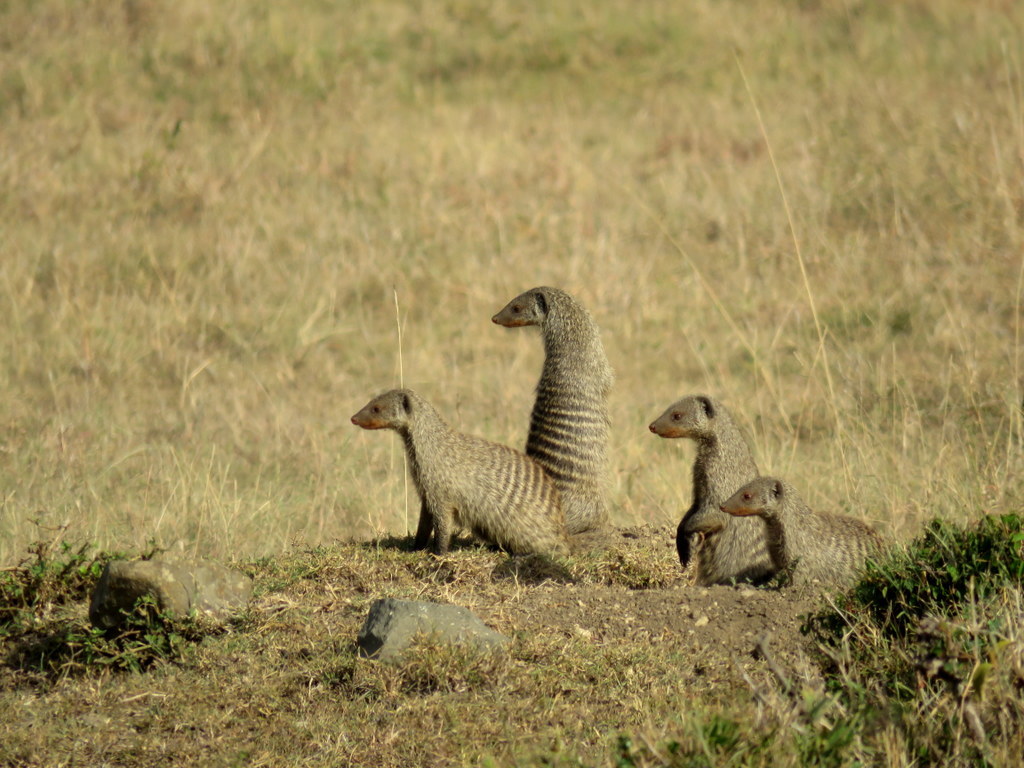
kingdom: Animalia
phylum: Chordata
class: Mammalia
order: Carnivora
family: Herpestidae
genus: Mungos
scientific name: Mungos mungo
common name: Banded mongoose
